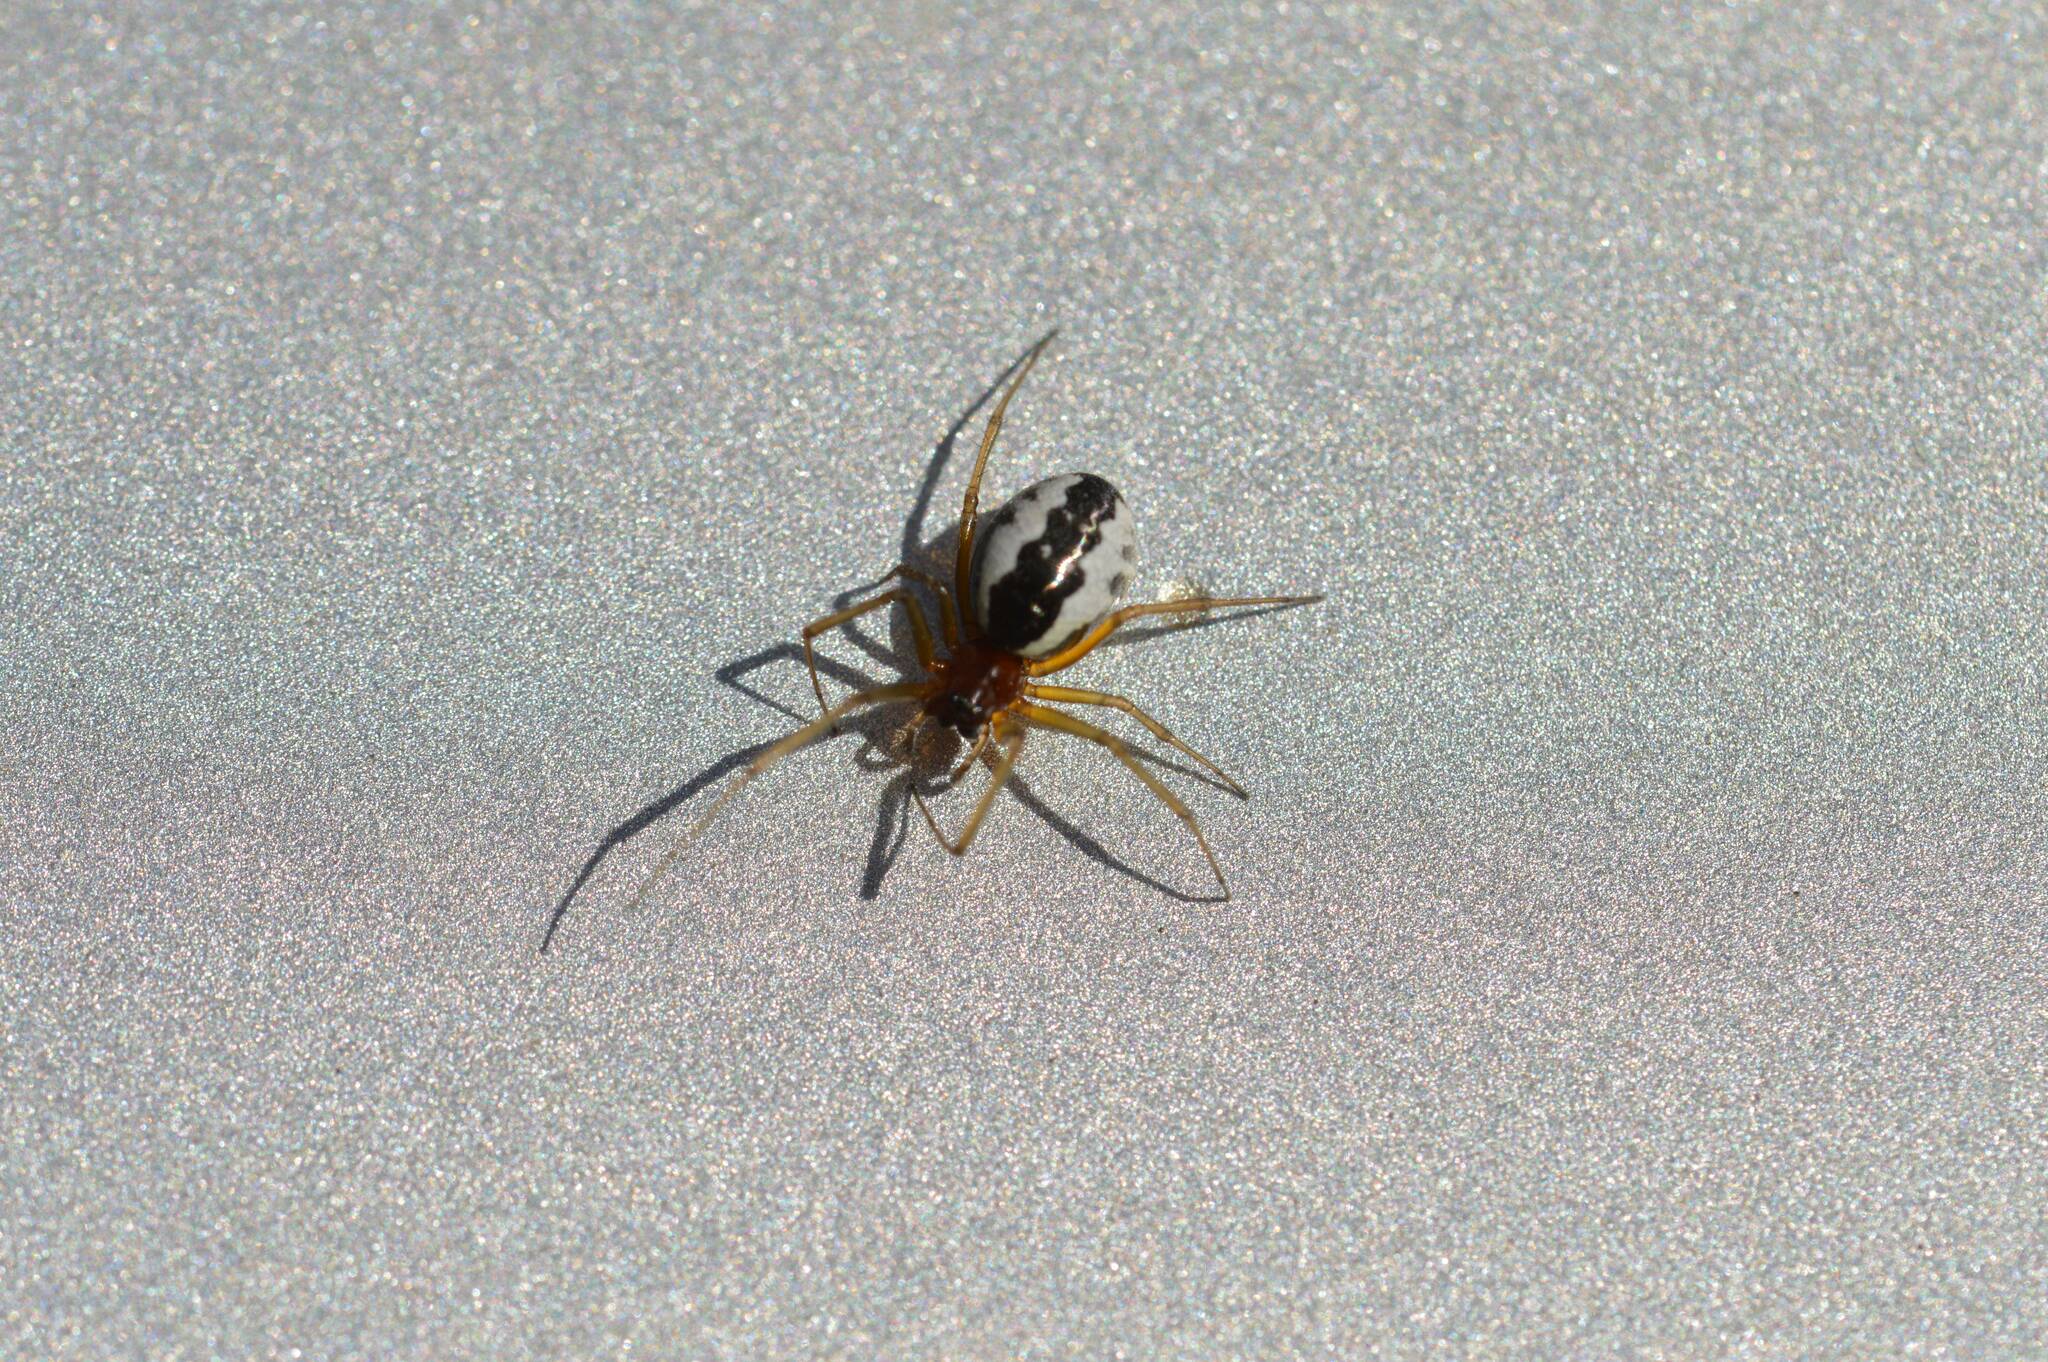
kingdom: Animalia
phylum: Arthropoda
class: Arachnida
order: Araneae
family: Linyphiidae
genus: Frontinellina
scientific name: Frontinellina frutetorum
